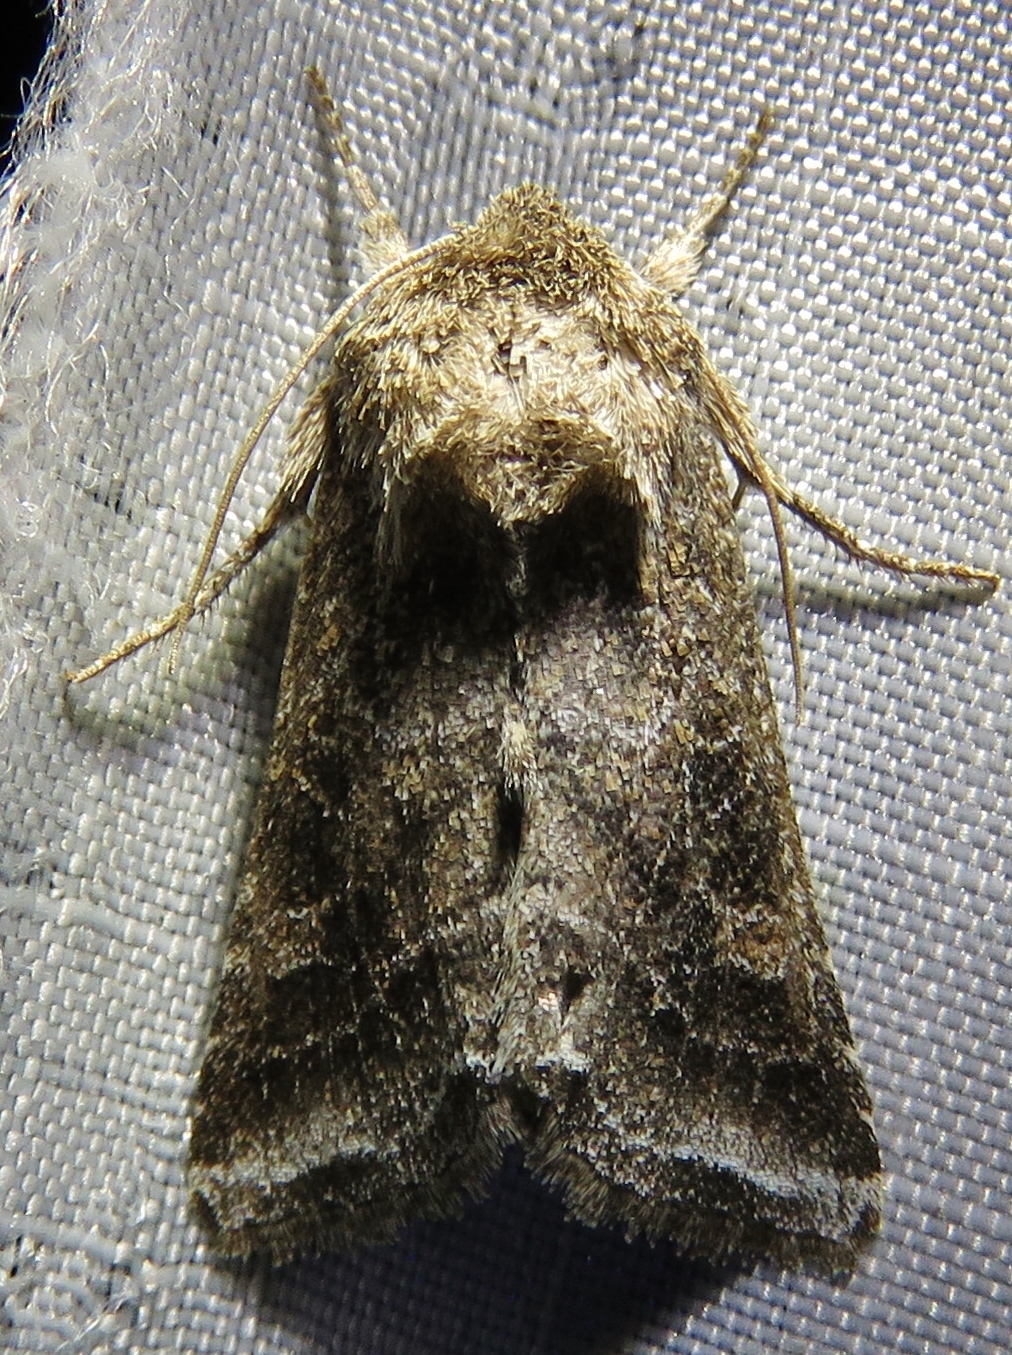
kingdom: Animalia
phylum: Arthropoda
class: Insecta
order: Lepidoptera
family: Noctuidae
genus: Lacinipolia
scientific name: Lacinipolia erecta
